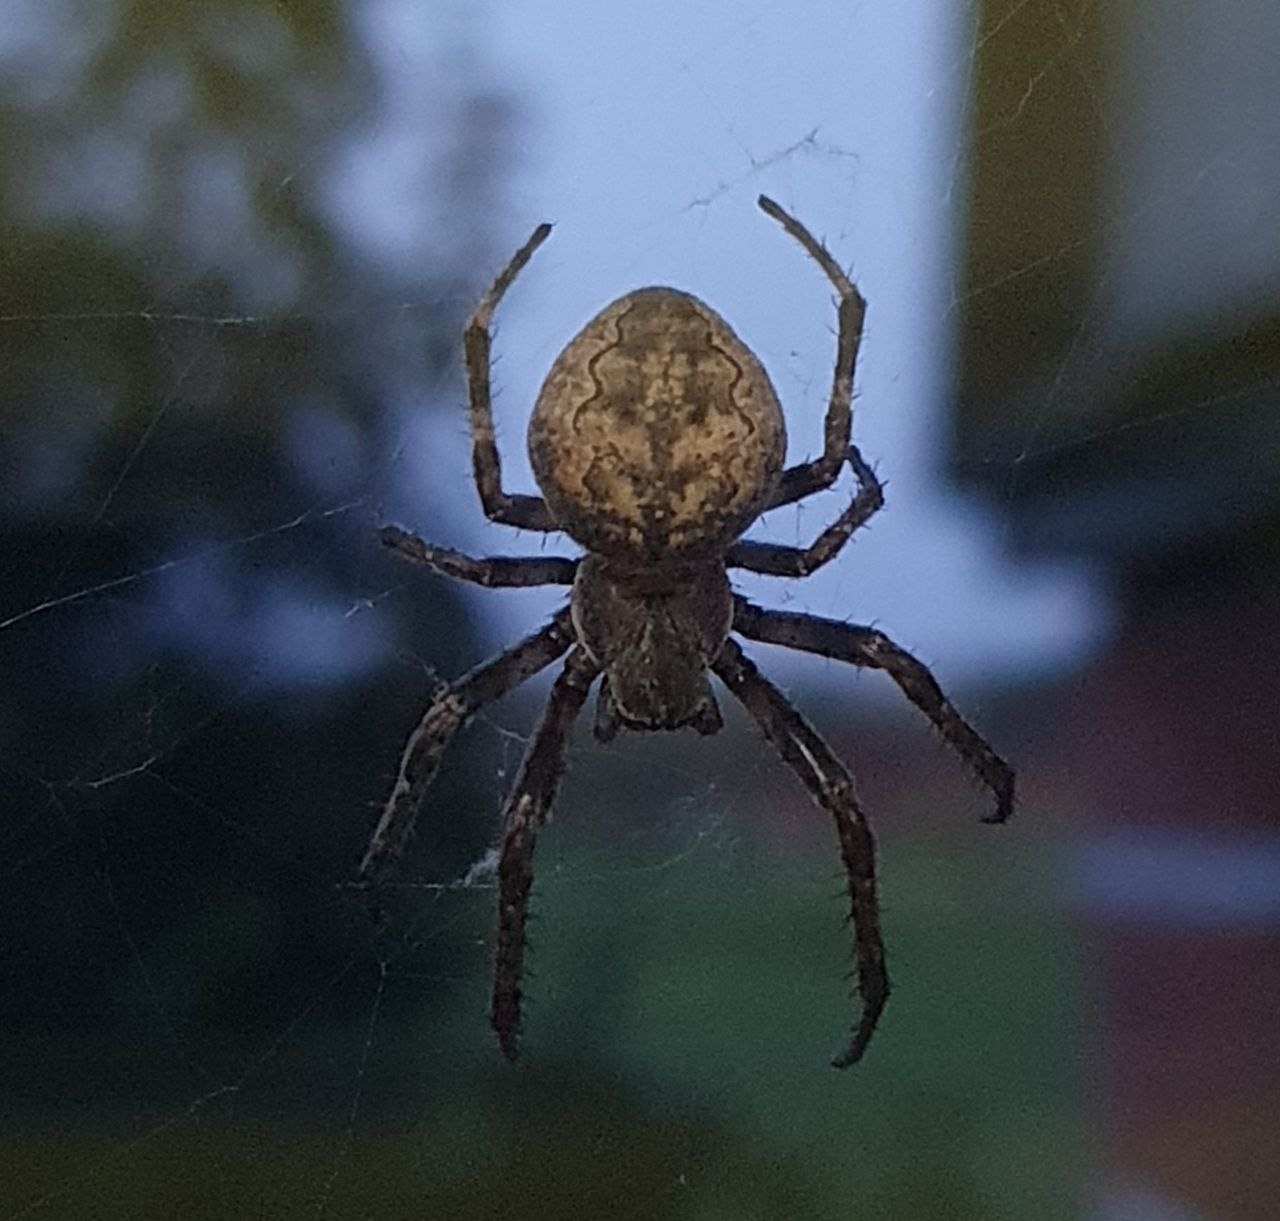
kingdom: Animalia
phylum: Arthropoda
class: Arachnida
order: Araneae
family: Araneidae
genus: Larinioides
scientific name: Larinioides ixobolus
